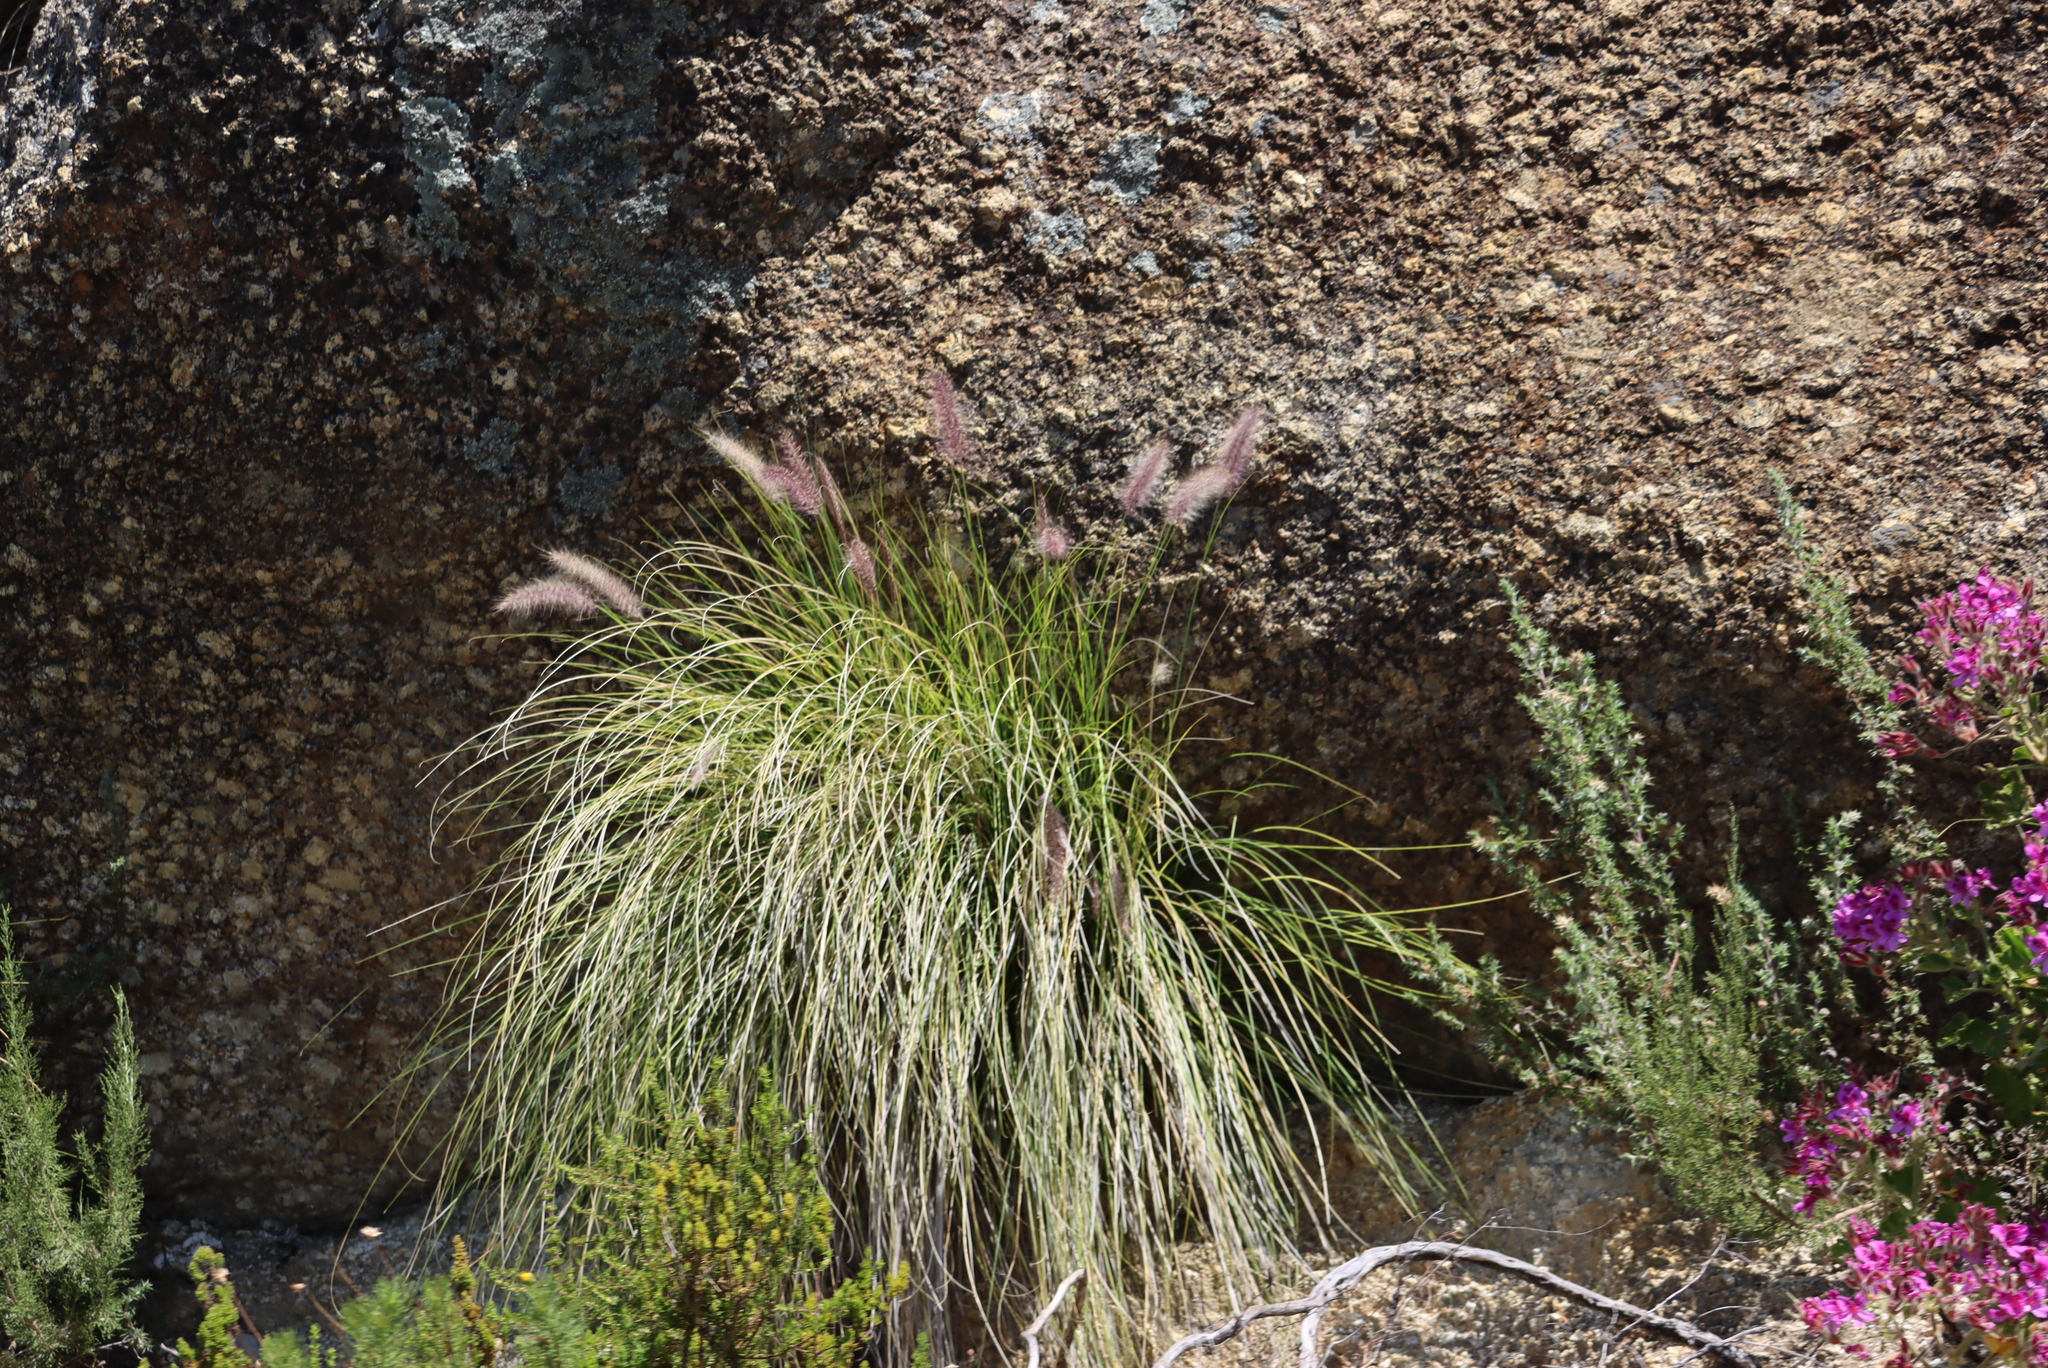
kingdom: Plantae
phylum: Tracheophyta
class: Liliopsida
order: Poales
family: Poaceae
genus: Cenchrus
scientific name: Cenchrus setaceus
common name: Crimson fountaingrass
